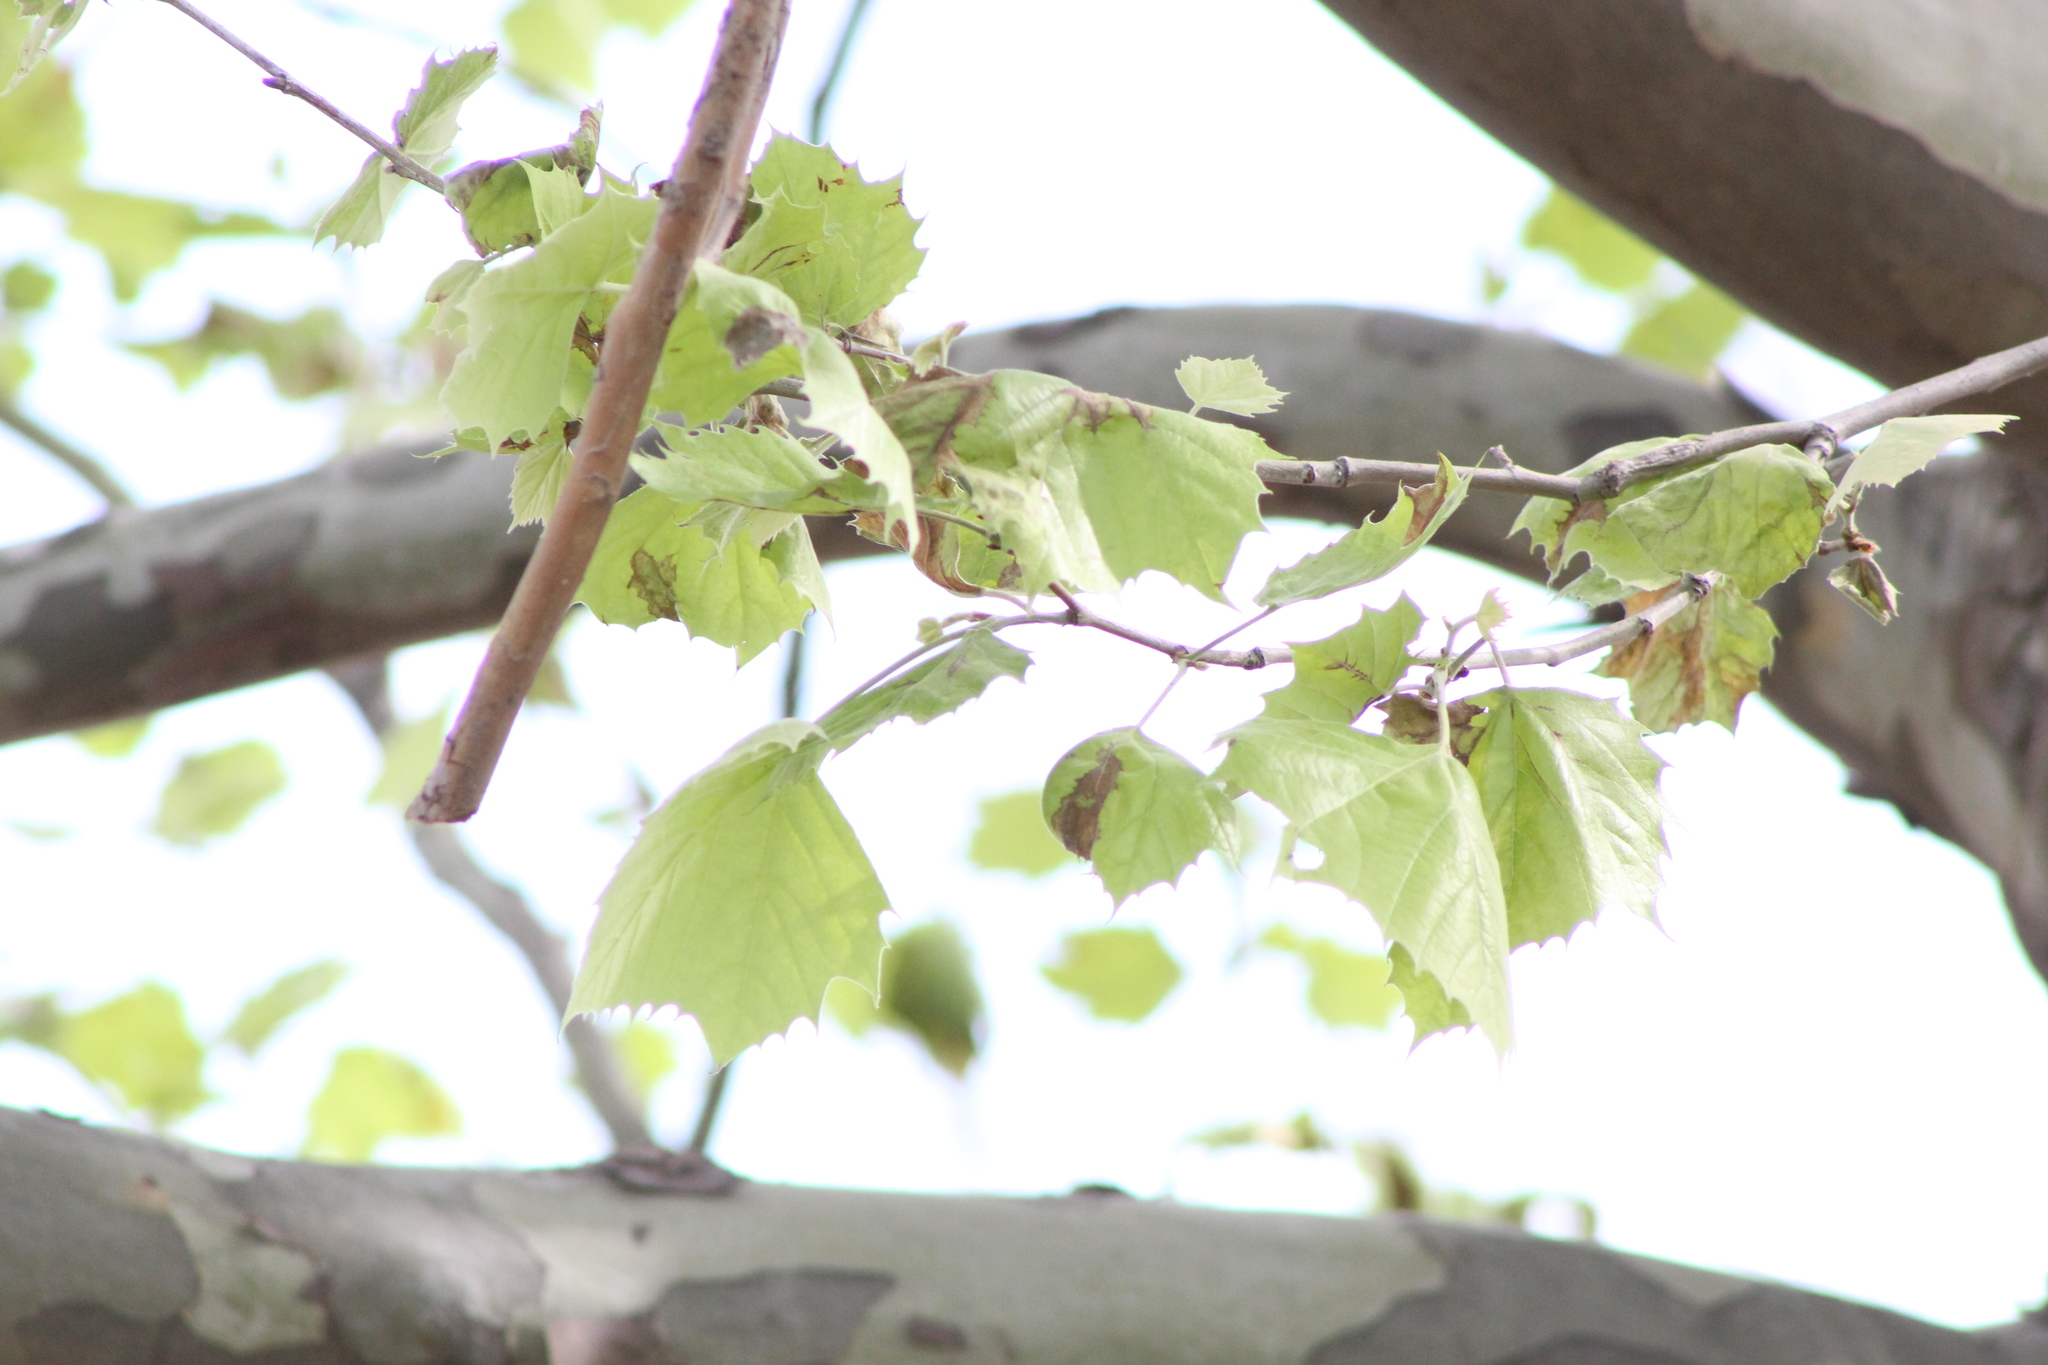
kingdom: Plantae
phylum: Tracheophyta
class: Magnoliopsida
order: Proteales
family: Platanaceae
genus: Platanus
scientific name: Platanus occidentalis
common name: American sycamore
